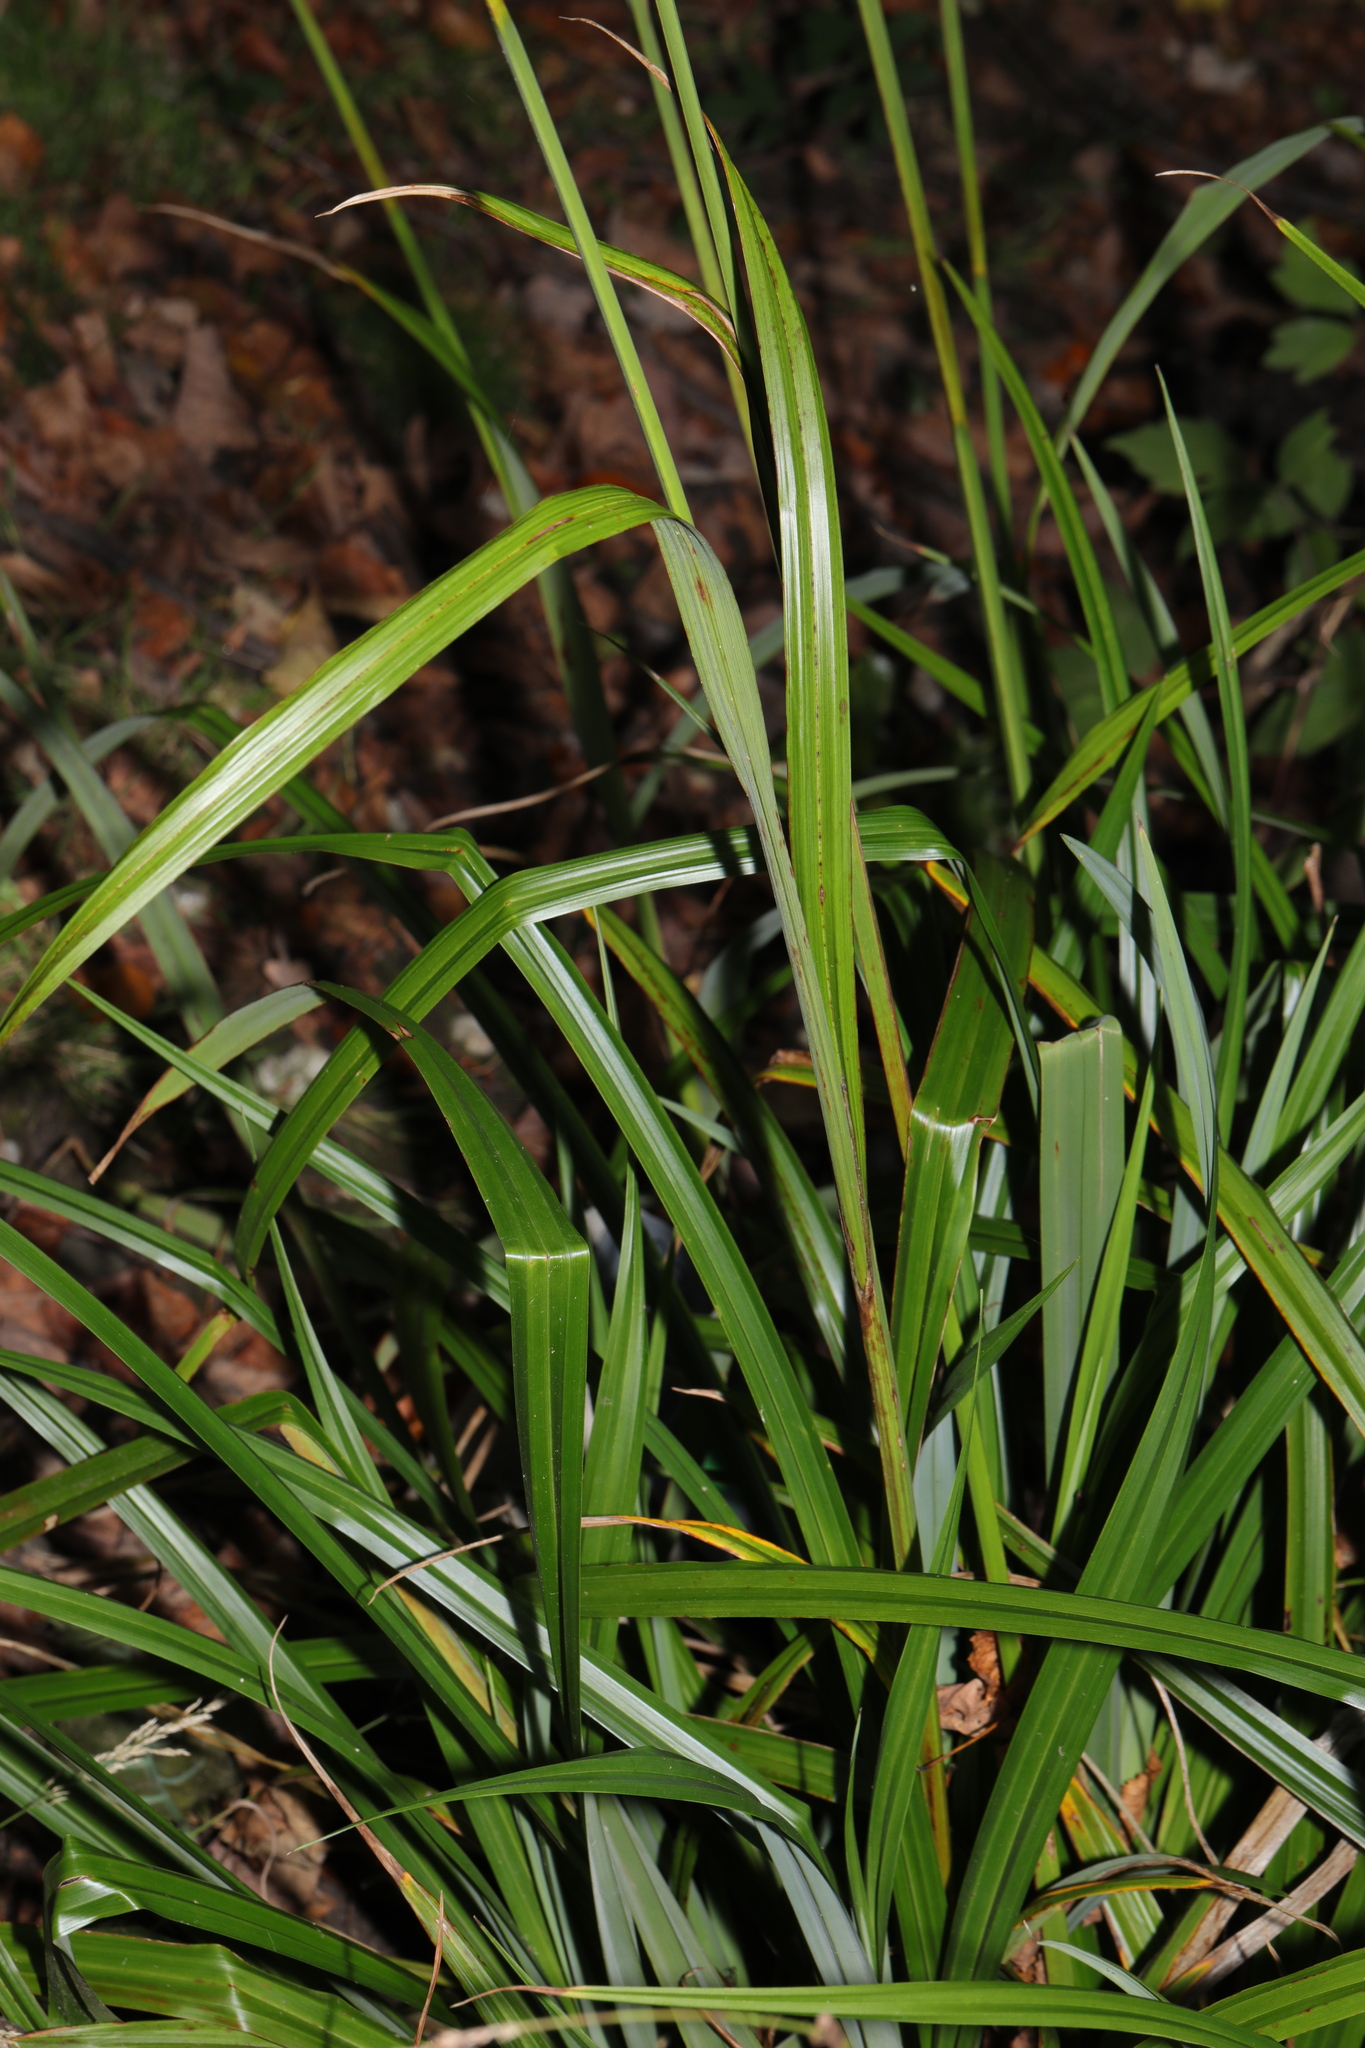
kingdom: Plantae
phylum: Tracheophyta
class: Liliopsida
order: Poales
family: Cyperaceae
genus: Carex
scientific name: Carex pendula
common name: Pendulous sedge
